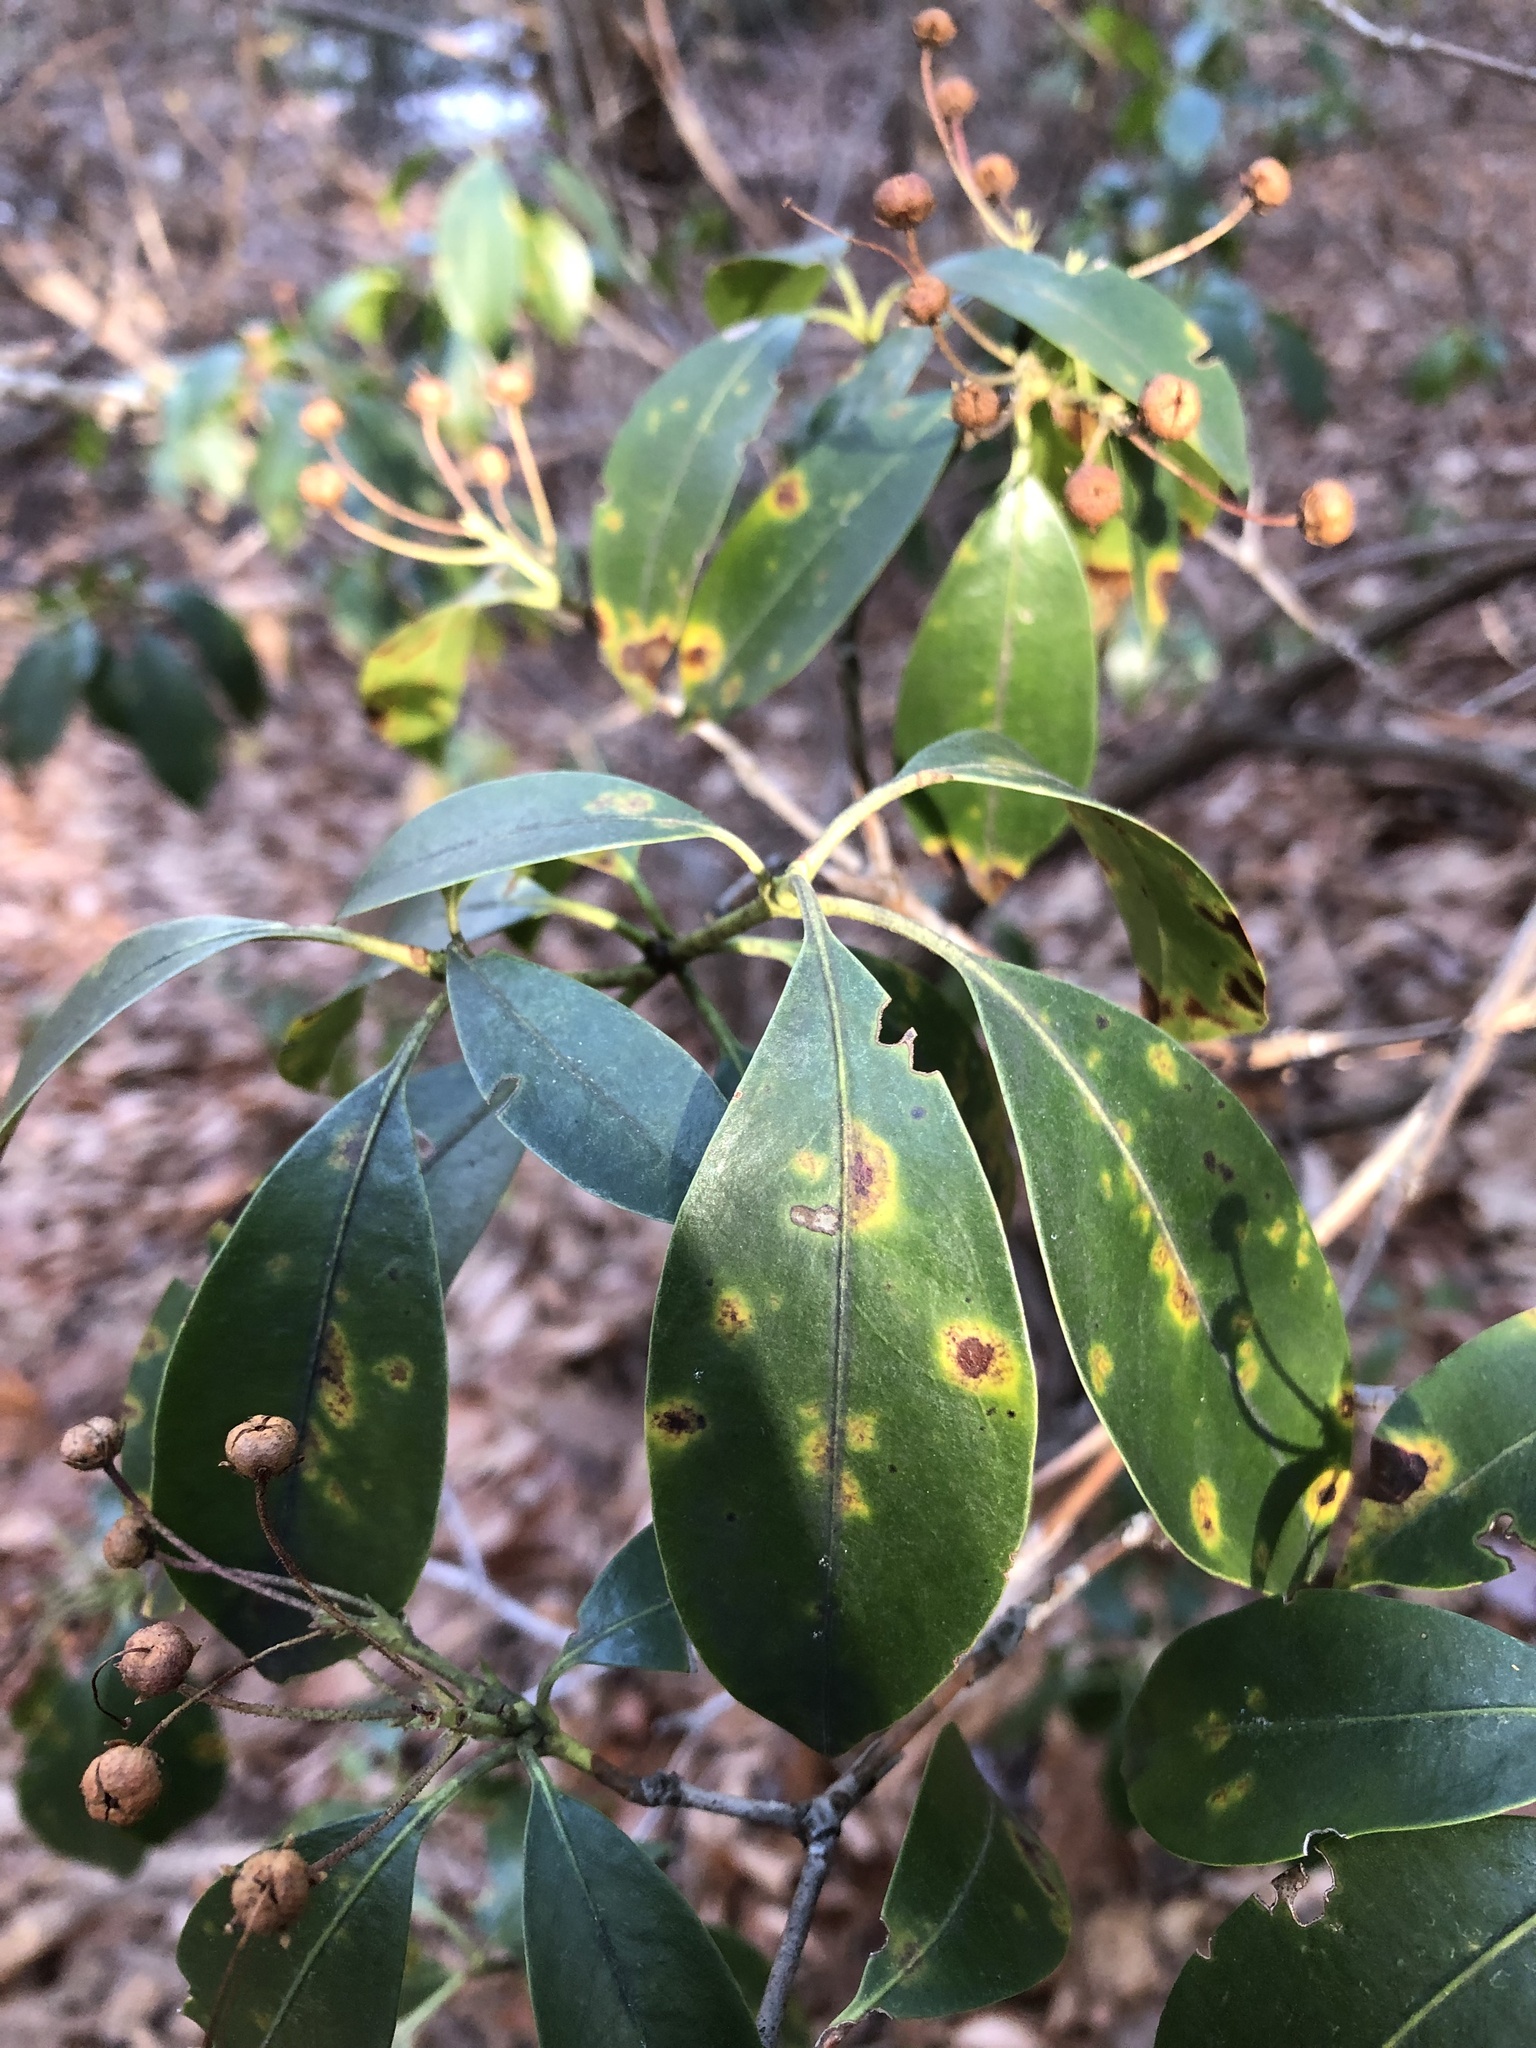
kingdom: Plantae
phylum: Tracheophyta
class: Magnoliopsida
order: Ericales
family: Ericaceae
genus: Kalmia
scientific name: Kalmia latifolia
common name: Mountain-laurel
